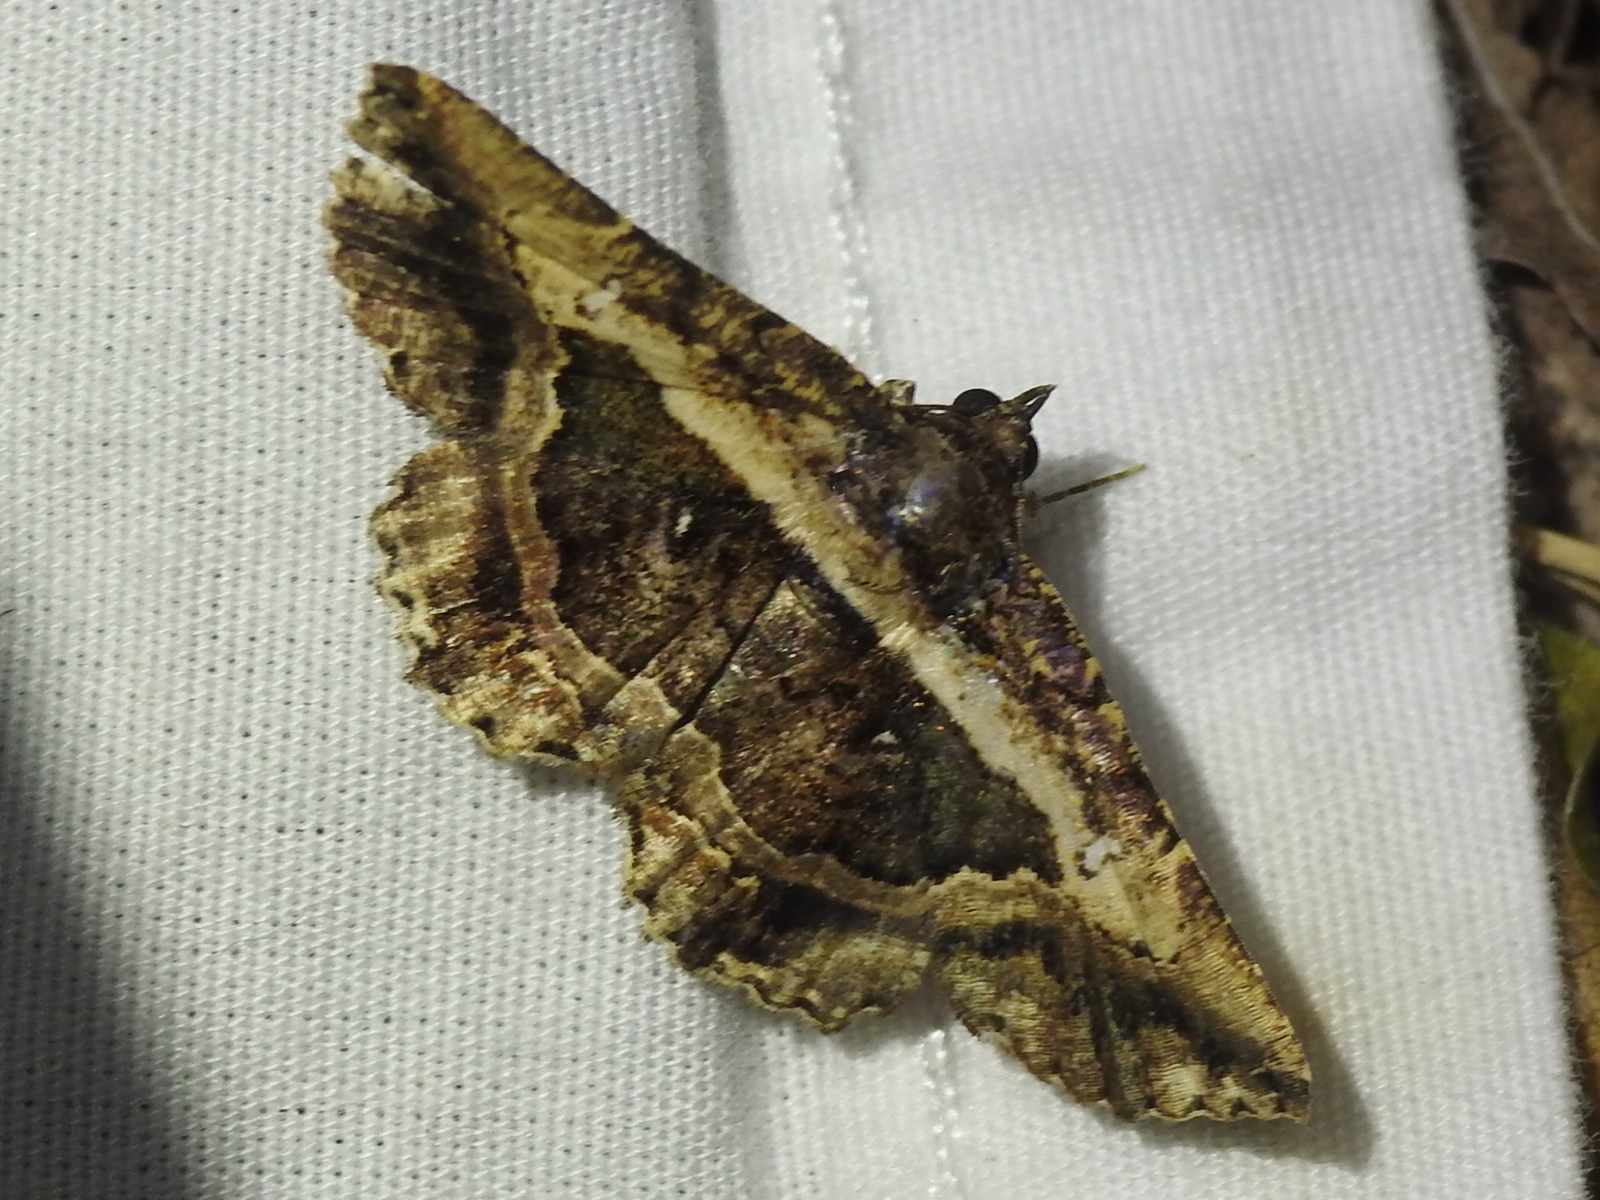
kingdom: Animalia
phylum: Arthropoda
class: Insecta
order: Lepidoptera
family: Erebidae
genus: Helia
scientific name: Helia agna
